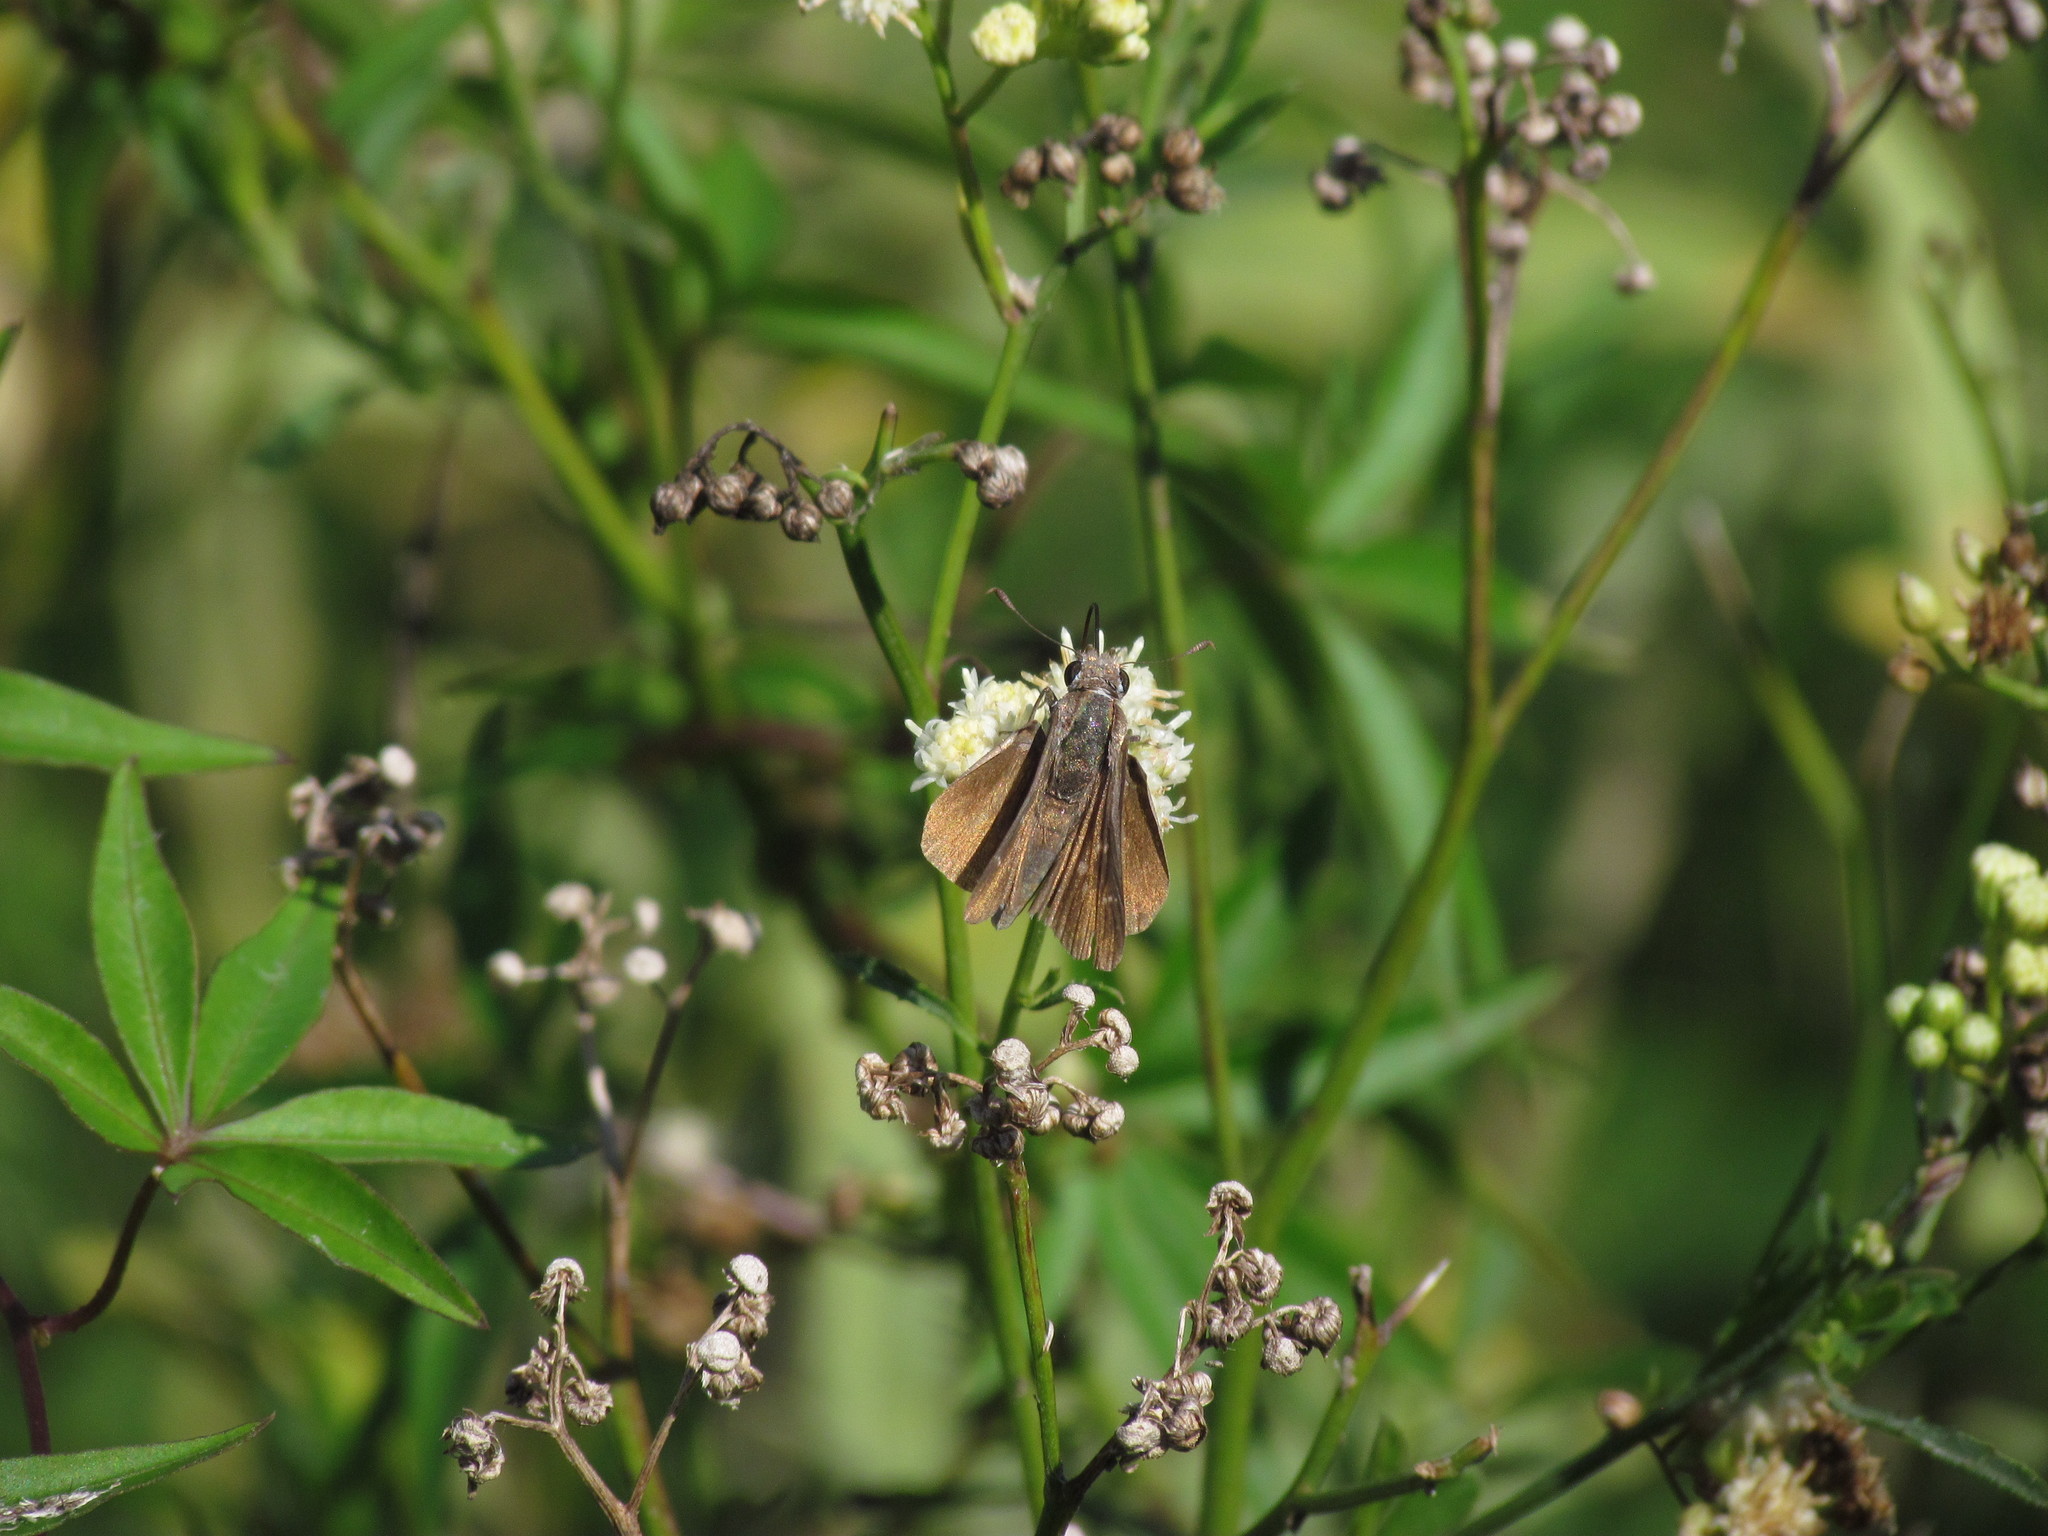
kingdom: Animalia
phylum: Arthropoda
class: Insecta
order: Lepidoptera
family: Hesperiidae
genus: Lerodea
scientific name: Lerodea eufala
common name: Eufala skipper
